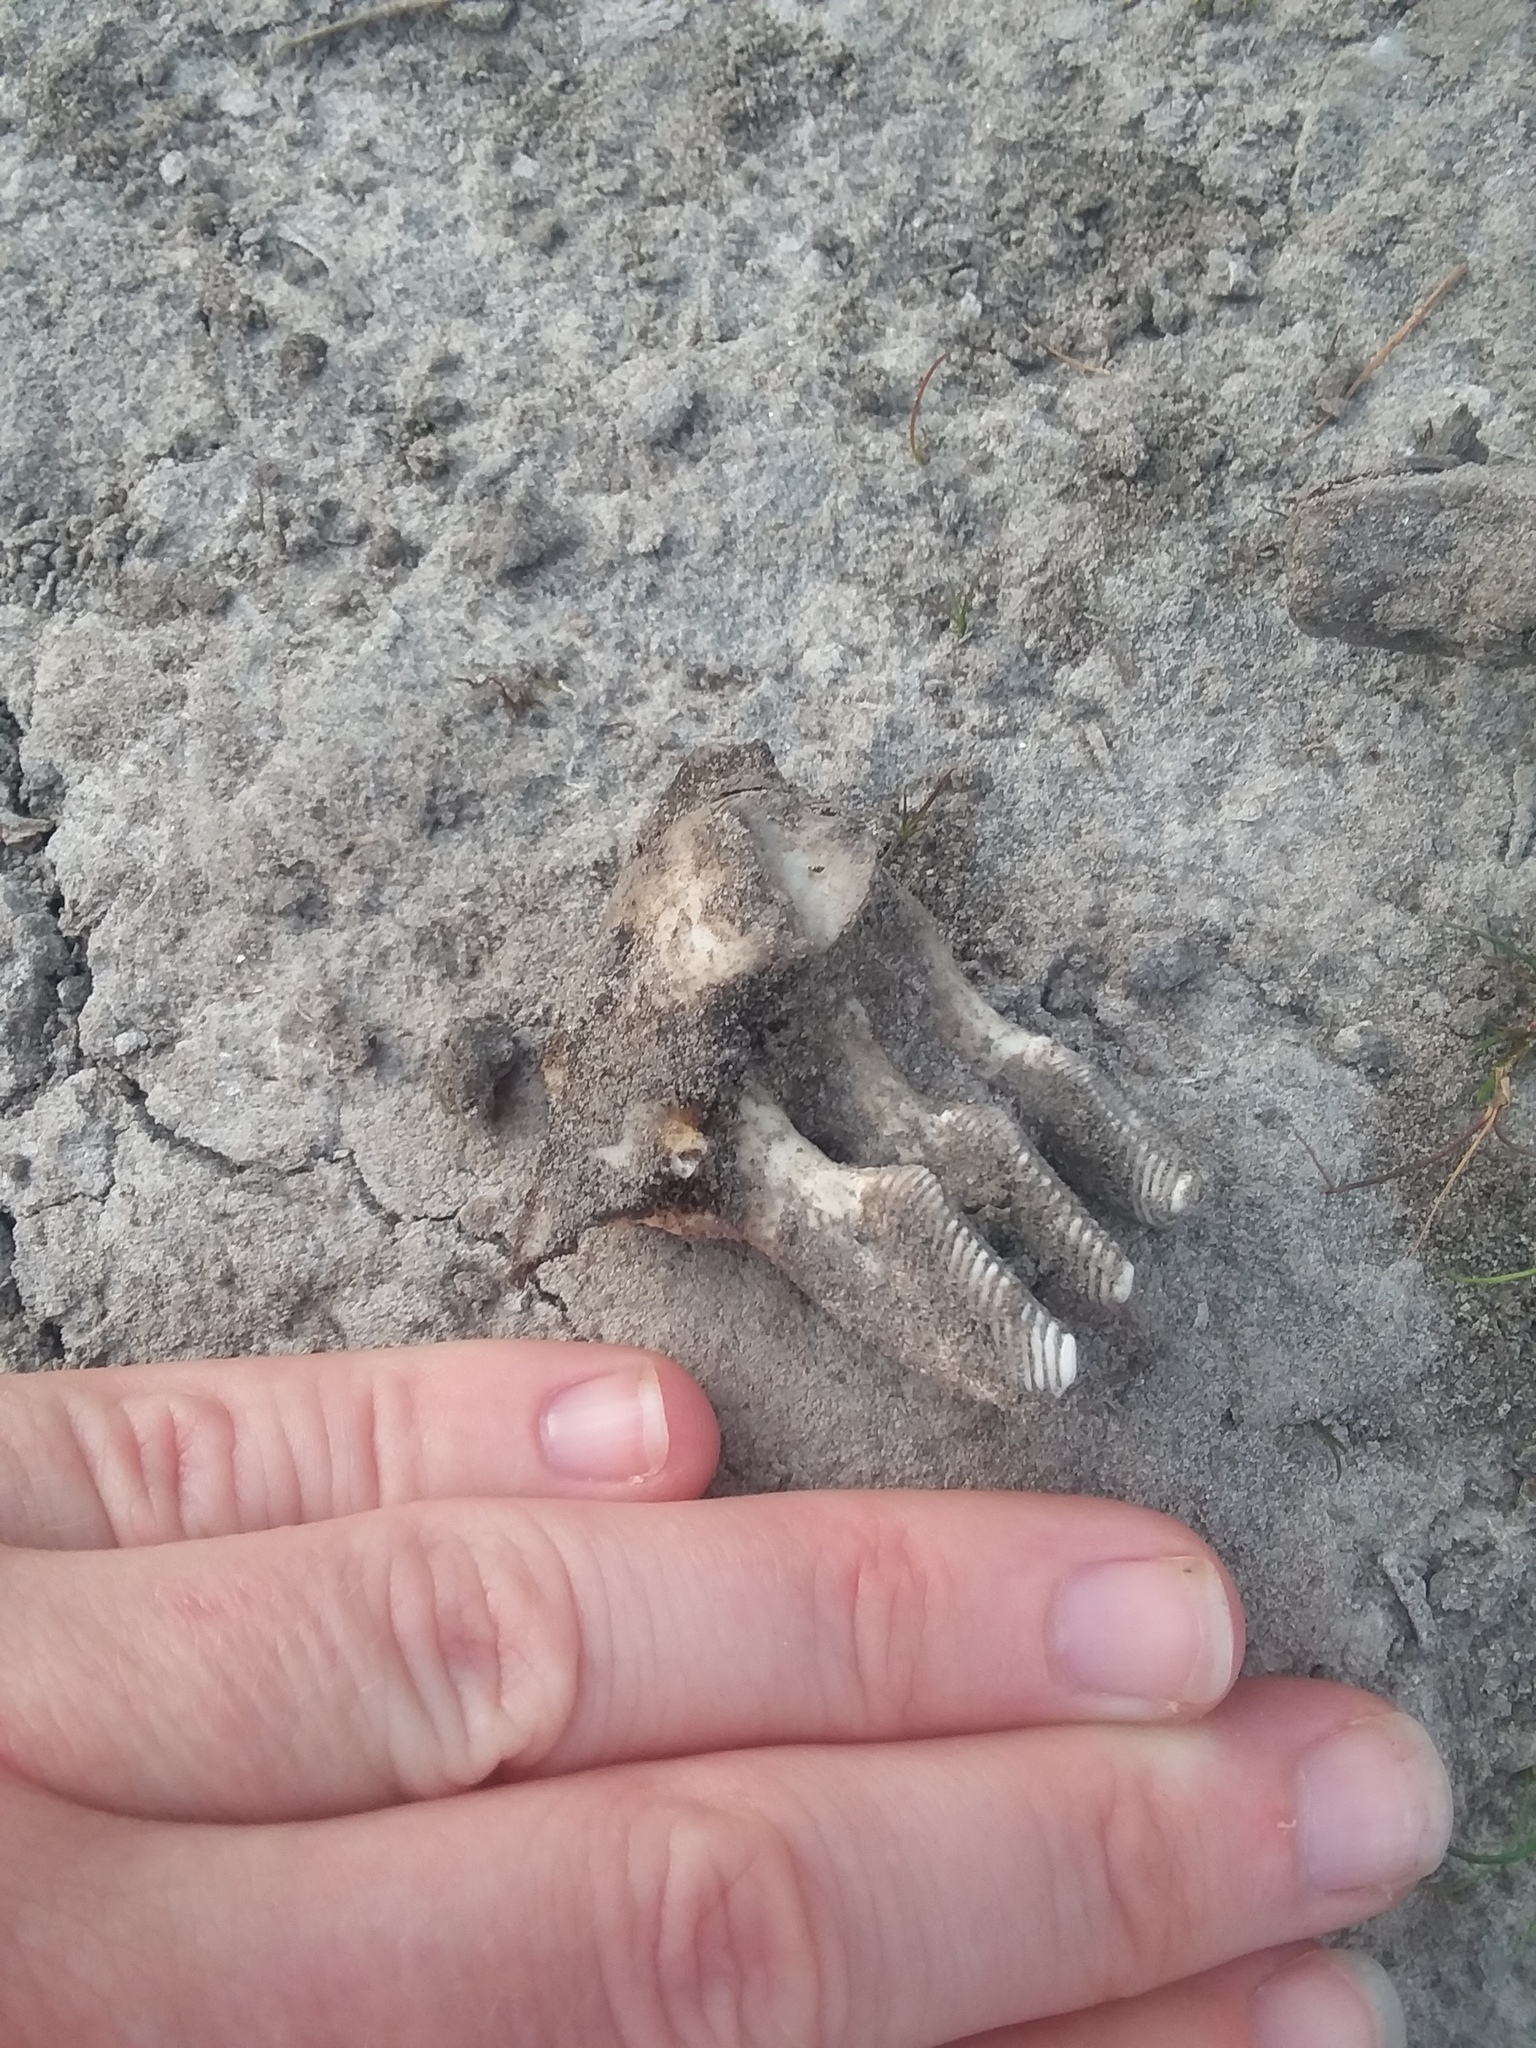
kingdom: Animalia
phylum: Chordata
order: Cypriniformes
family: Cyprinidae
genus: Ctenopharyngodon
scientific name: Ctenopharyngodon idella
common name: Grass carp
